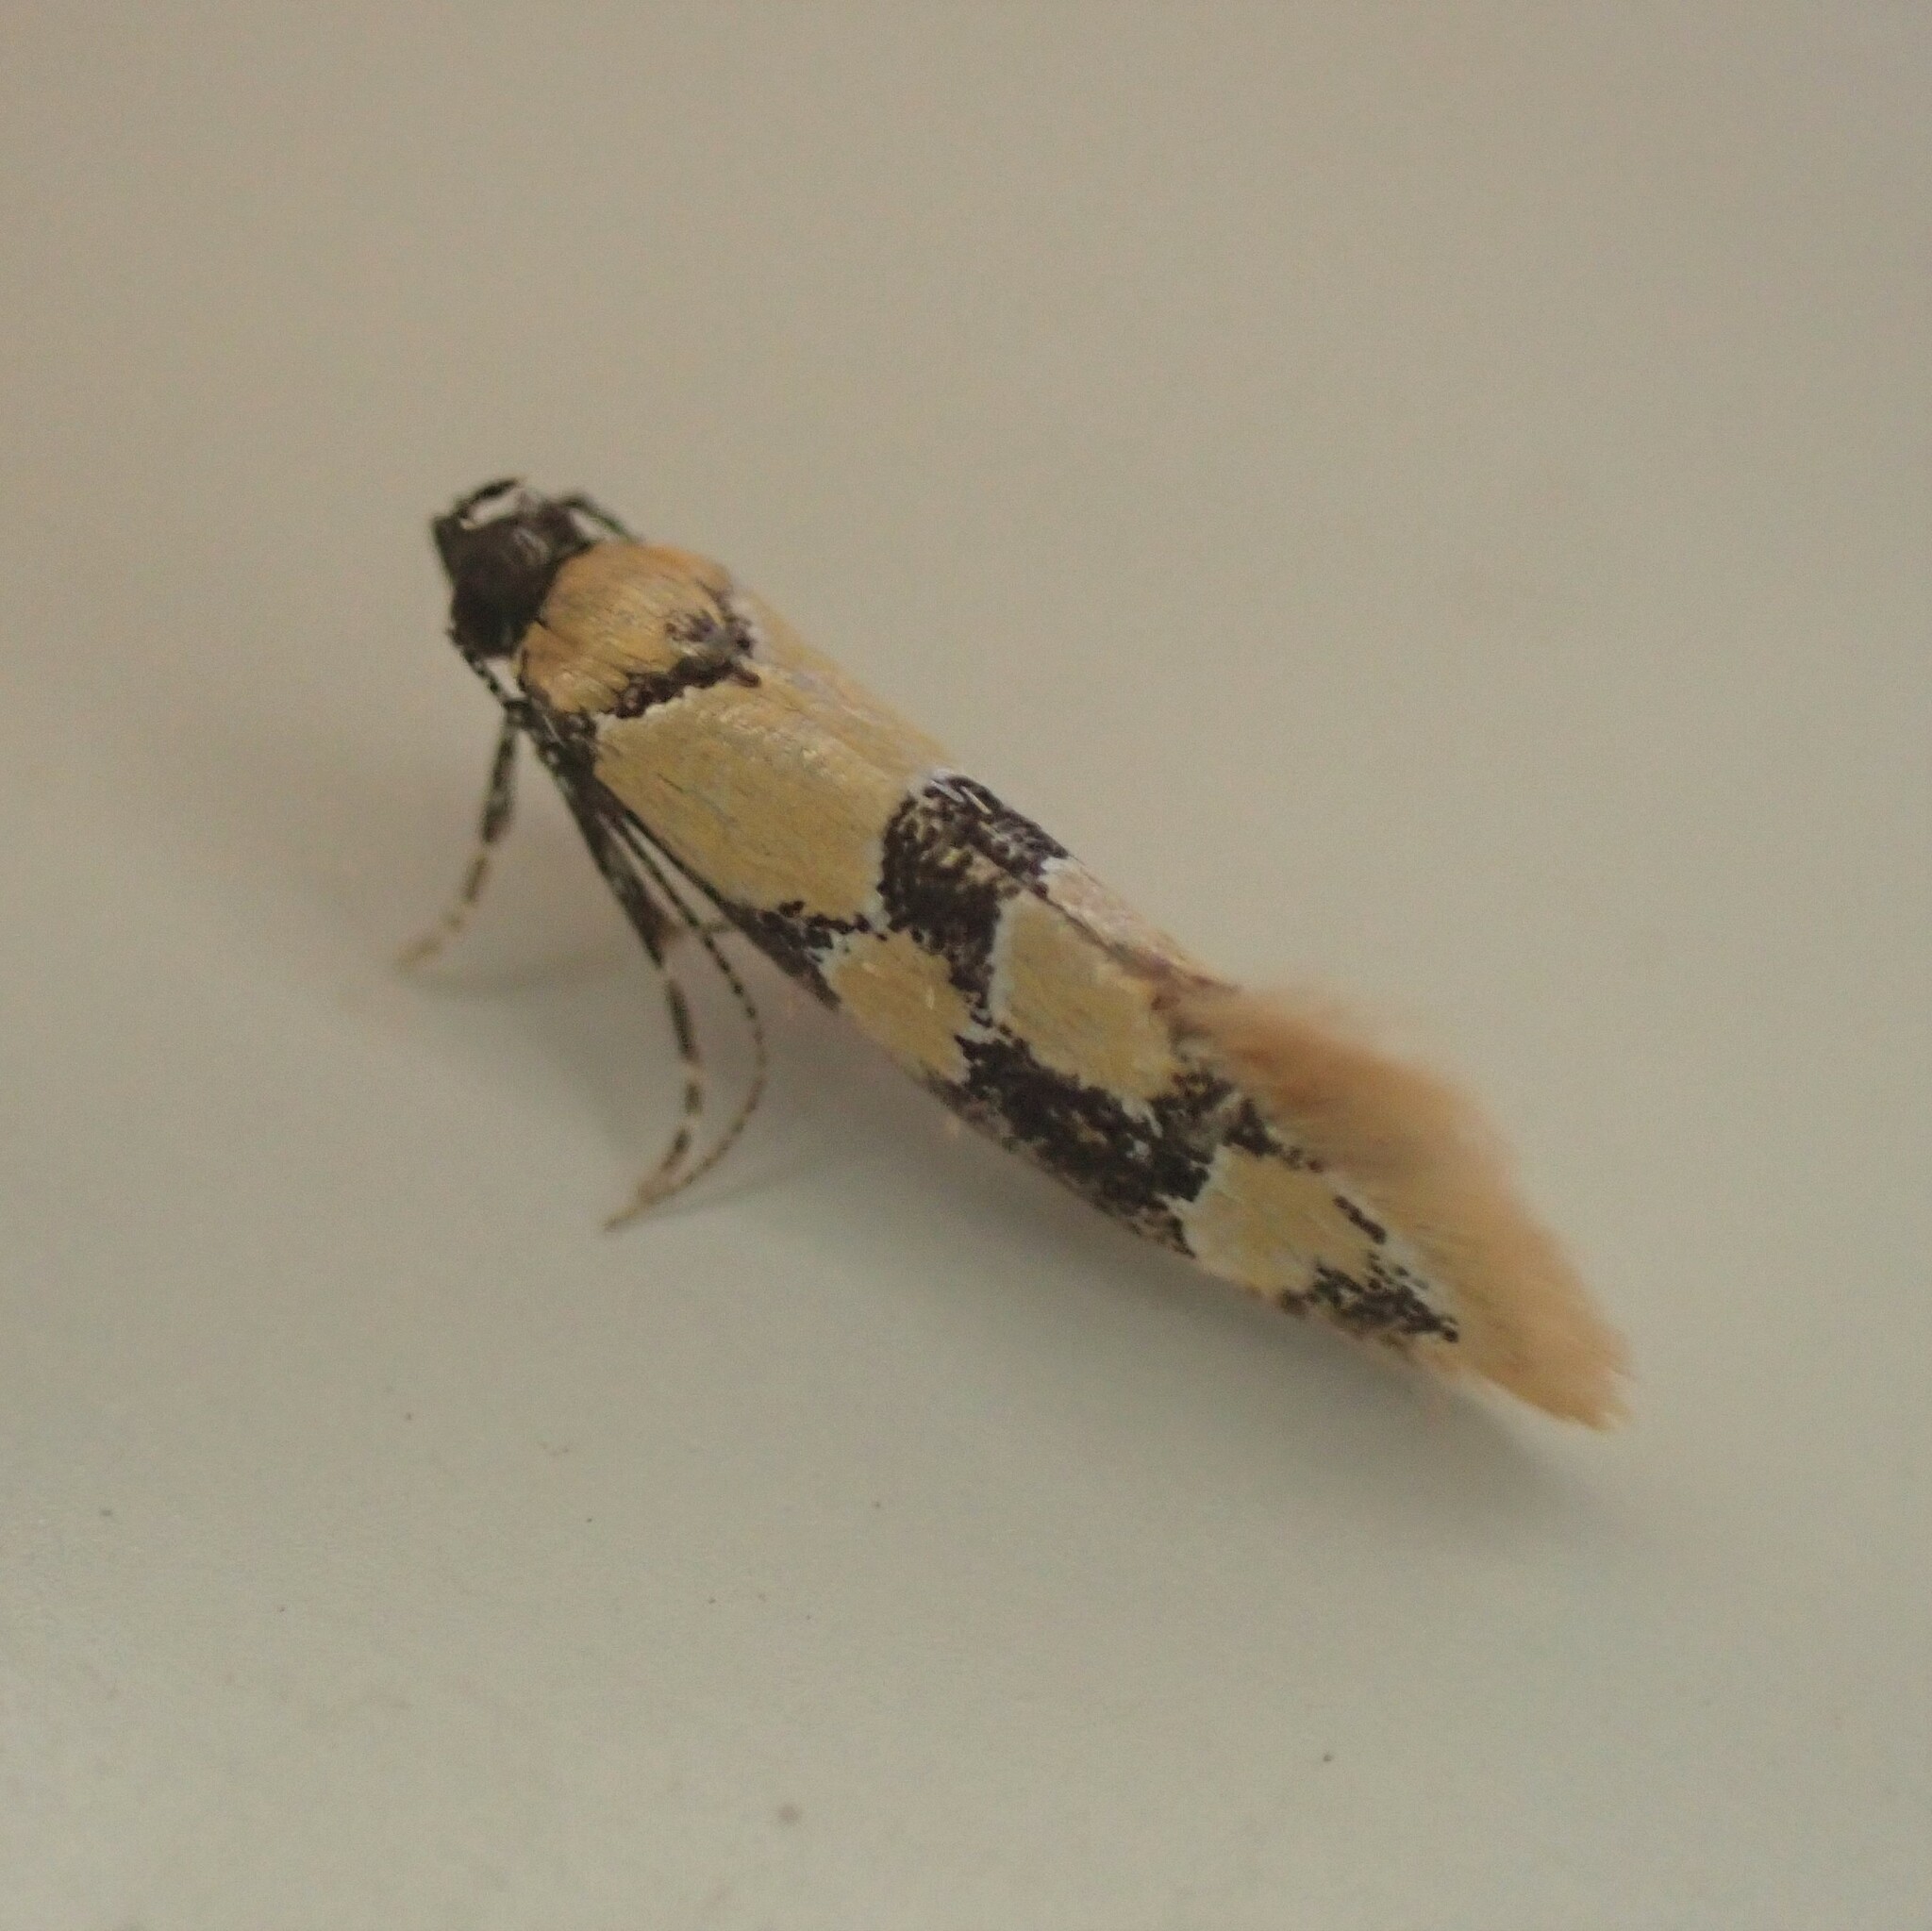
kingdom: Animalia
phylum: Arthropoda
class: Insecta
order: Lepidoptera
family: Oecophoridae
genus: Decantha
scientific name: Decantha stonda
